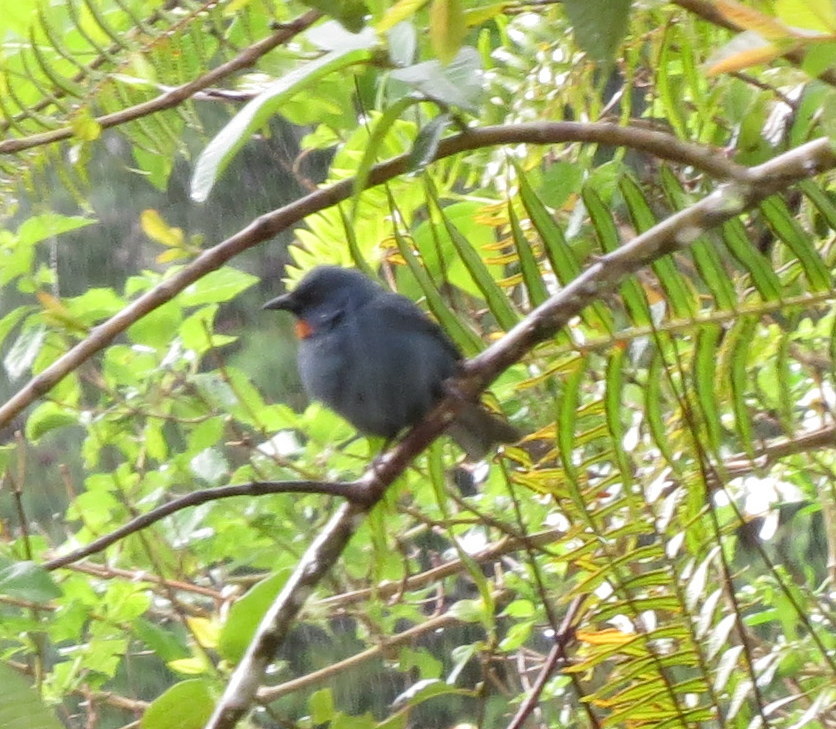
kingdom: Animalia
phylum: Chordata
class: Aves
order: Passeriformes
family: Thraupidae
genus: Euneornis
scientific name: Euneornis campestris
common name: Orangequit
